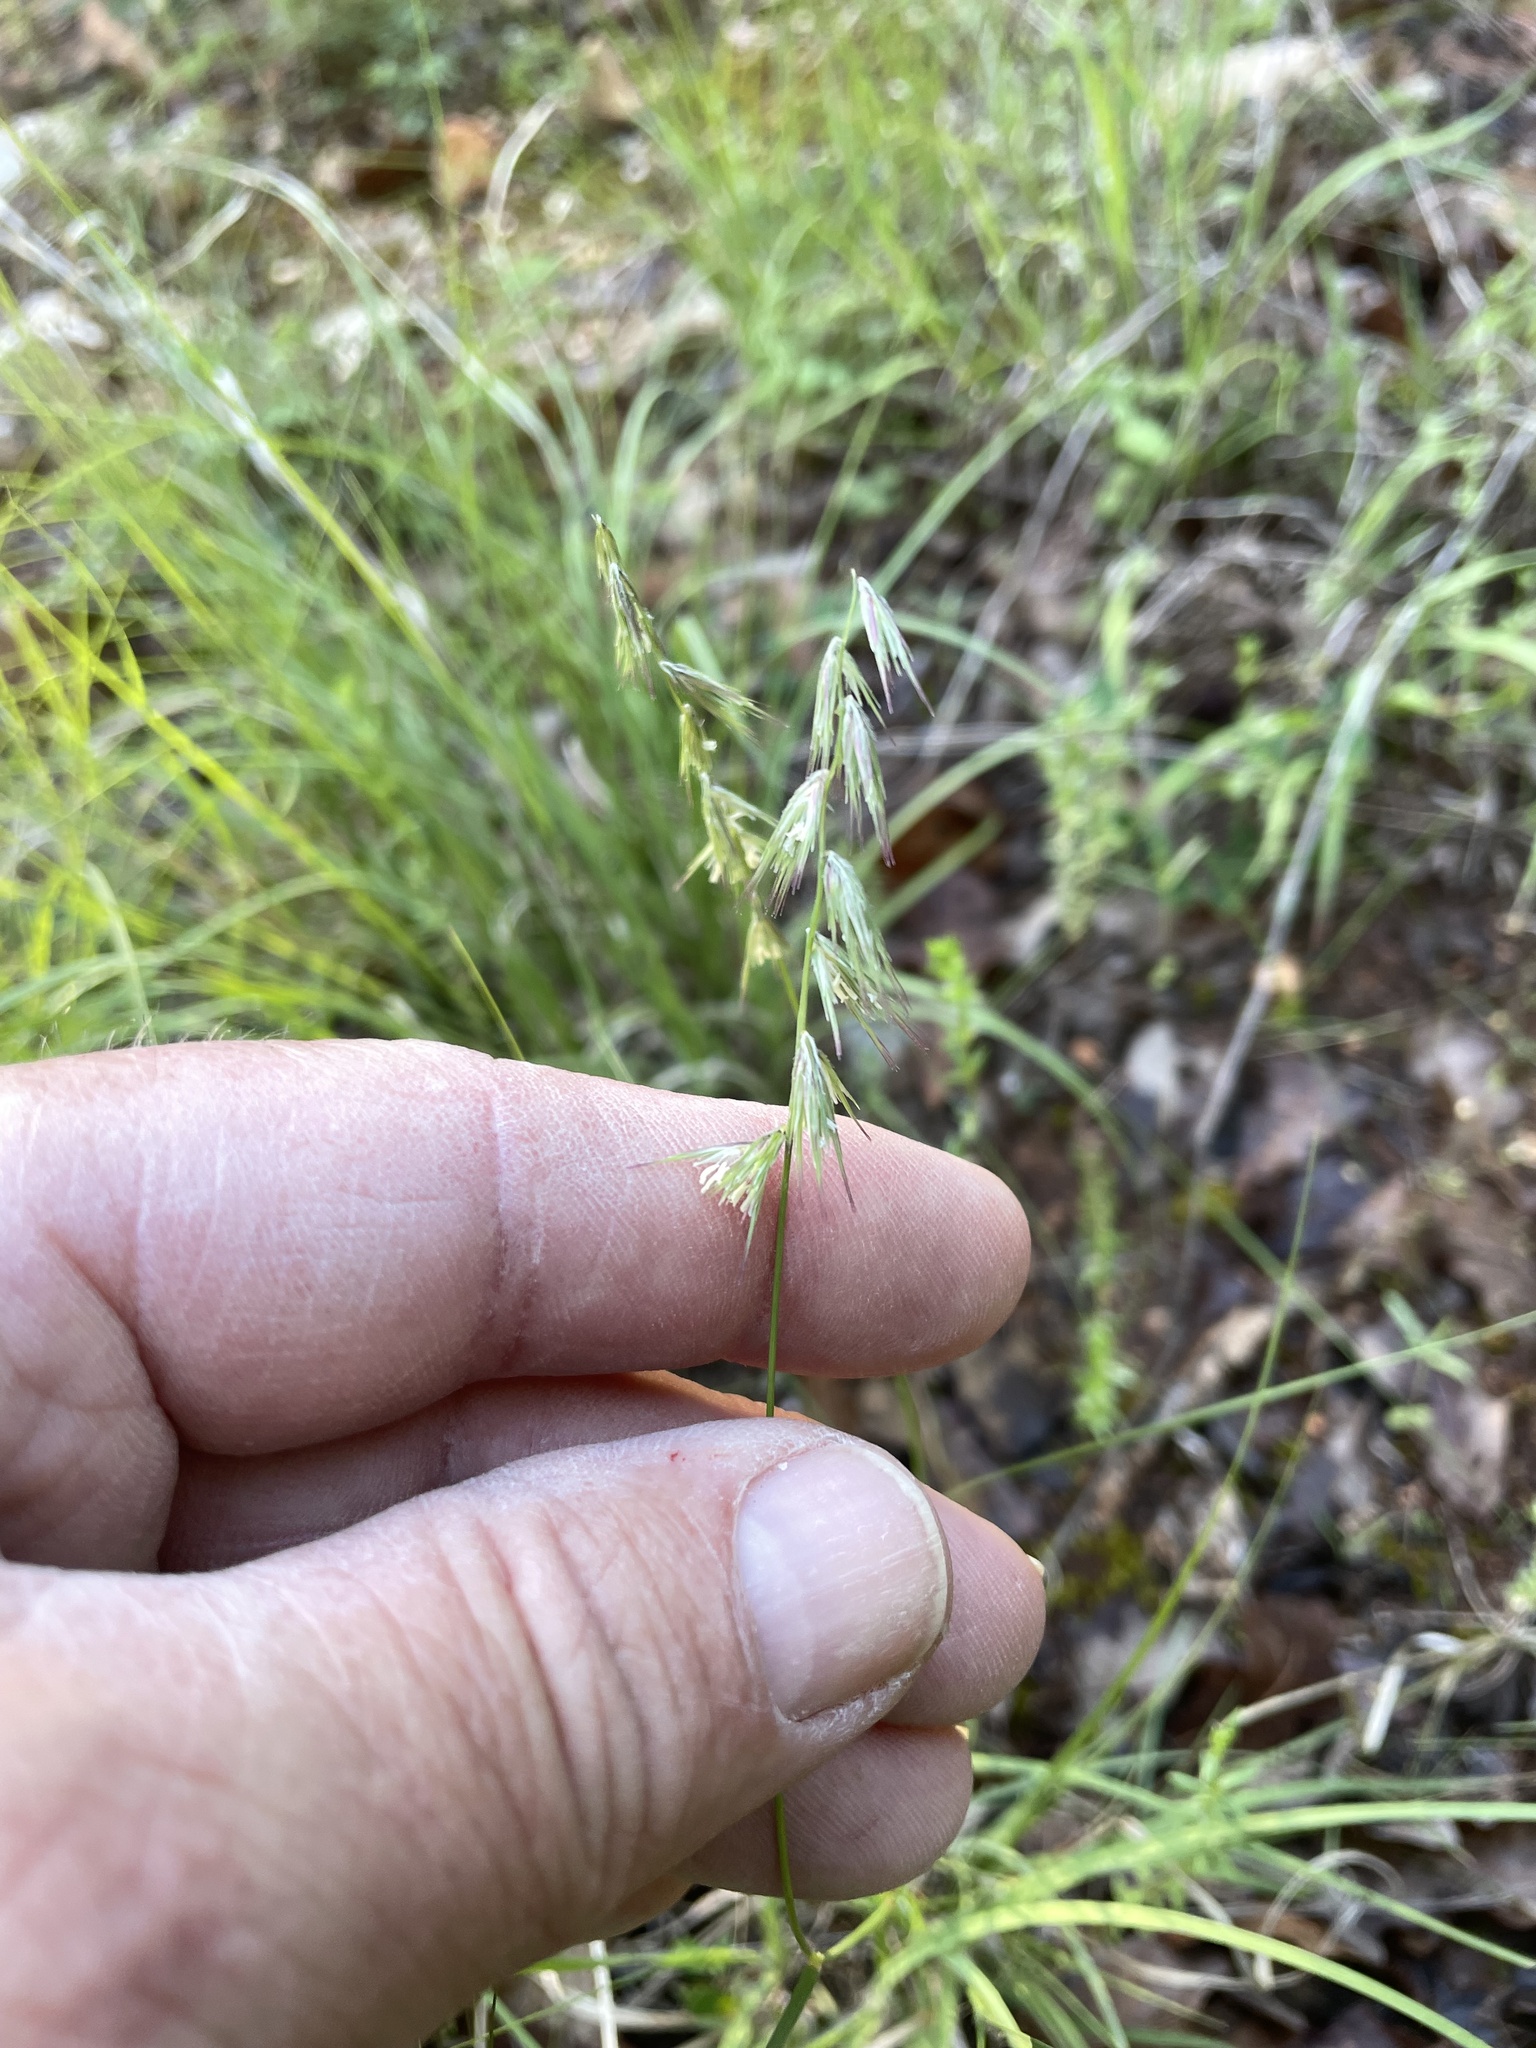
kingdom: Plantae
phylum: Tracheophyta
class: Liliopsida
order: Poales
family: Poaceae
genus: Bouteloua
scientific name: Bouteloua rigidiseta
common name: Texas grama
